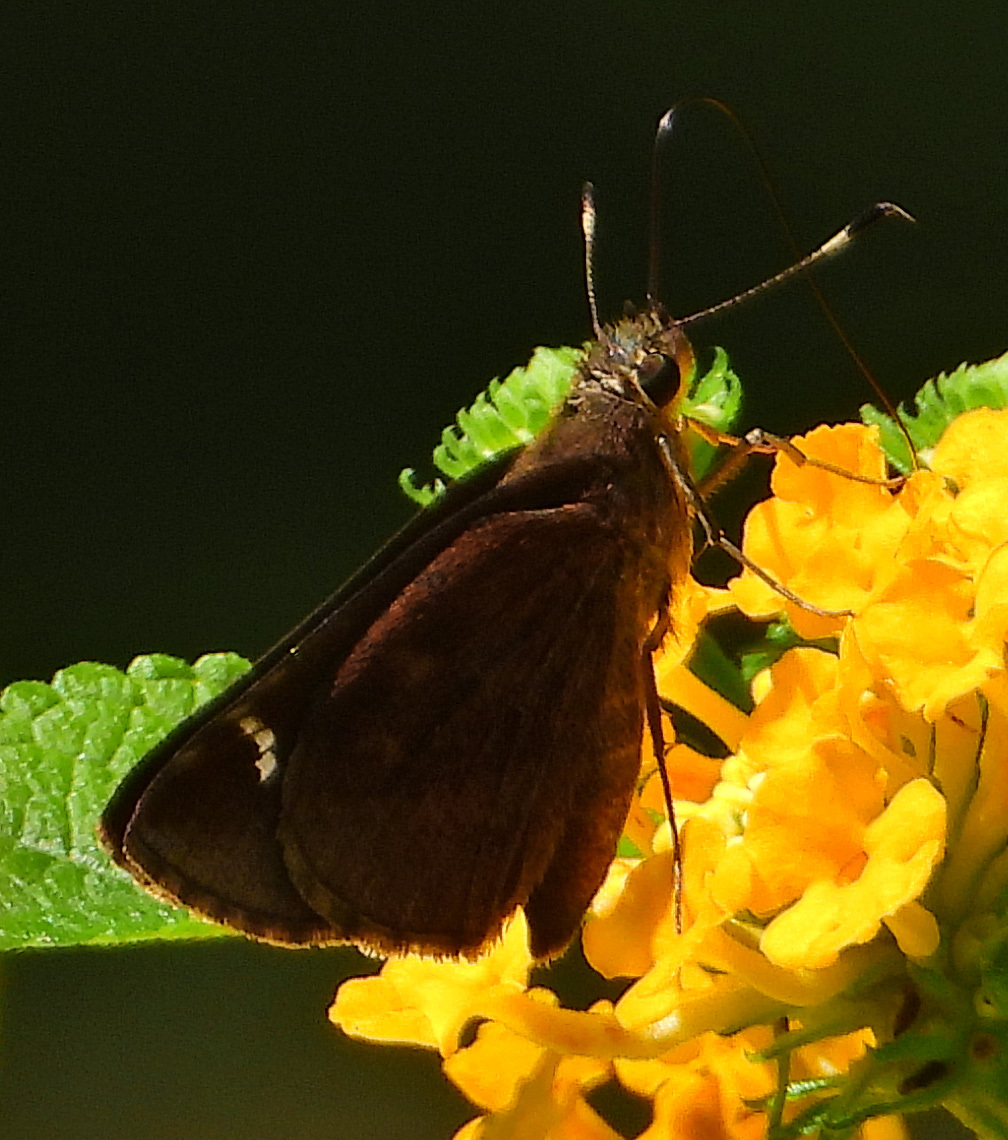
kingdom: Animalia
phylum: Arthropoda
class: Insecta
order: Lepidoptera
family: Hesperiidae
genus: Lerema
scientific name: Lerema accius
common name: Clouded skipper
